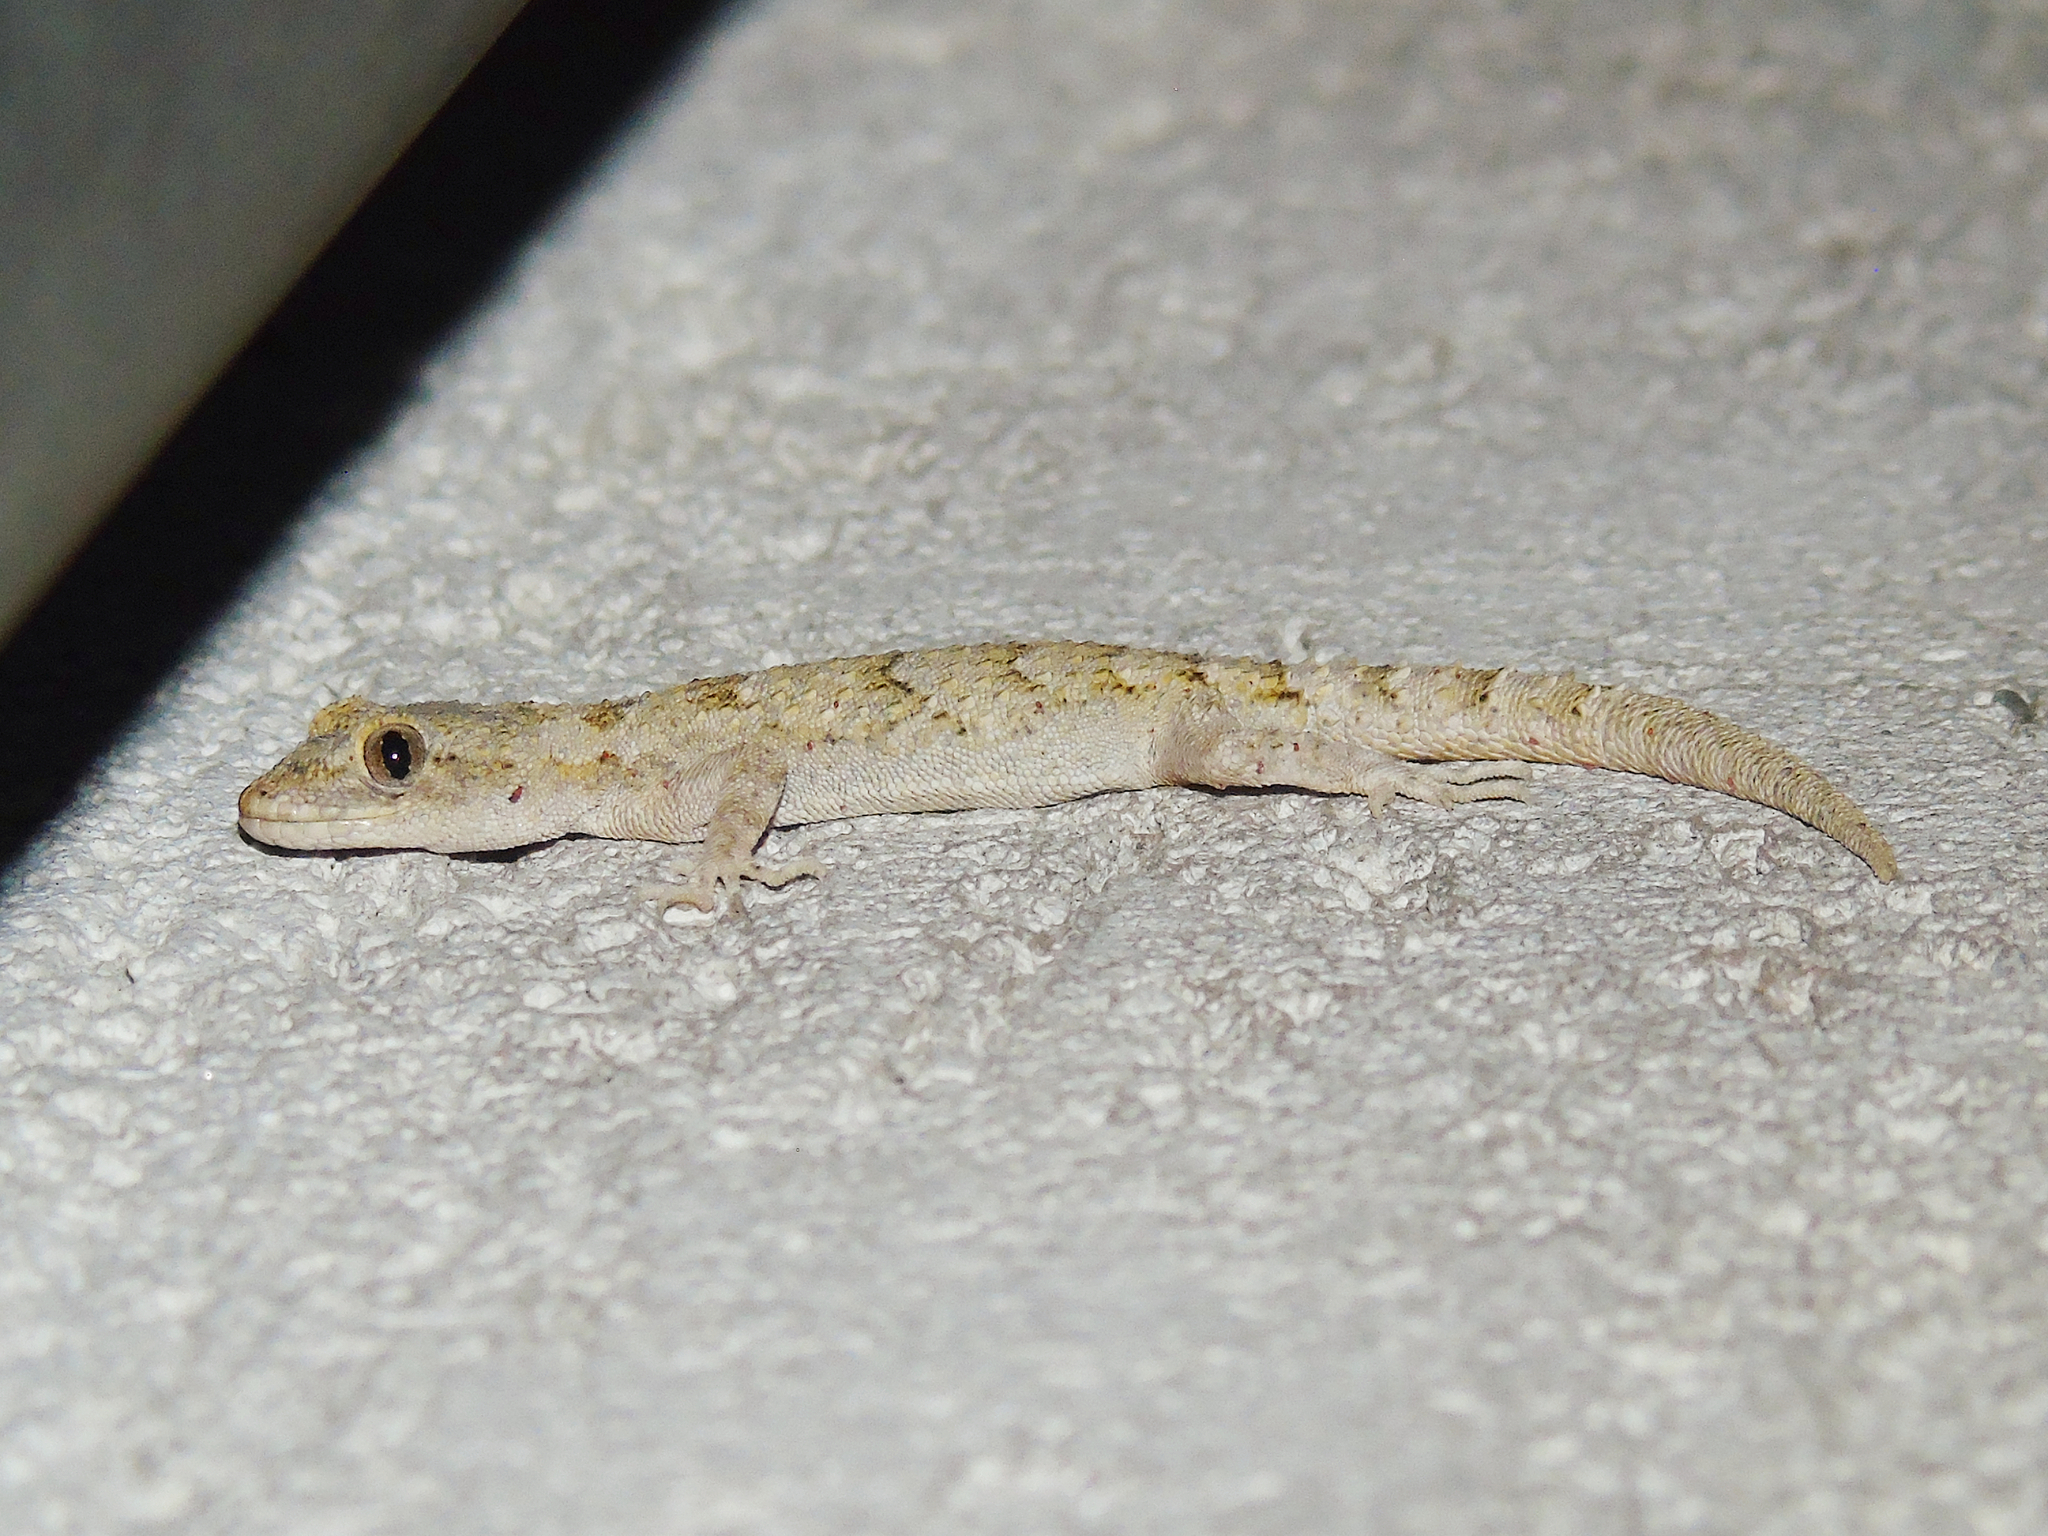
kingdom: Animalia
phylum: Chordata
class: Squamata
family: Gekkonidae
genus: Mediodactylus
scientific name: Mediodactylus danilewskii
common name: Bulgarian bent-toed gecko
